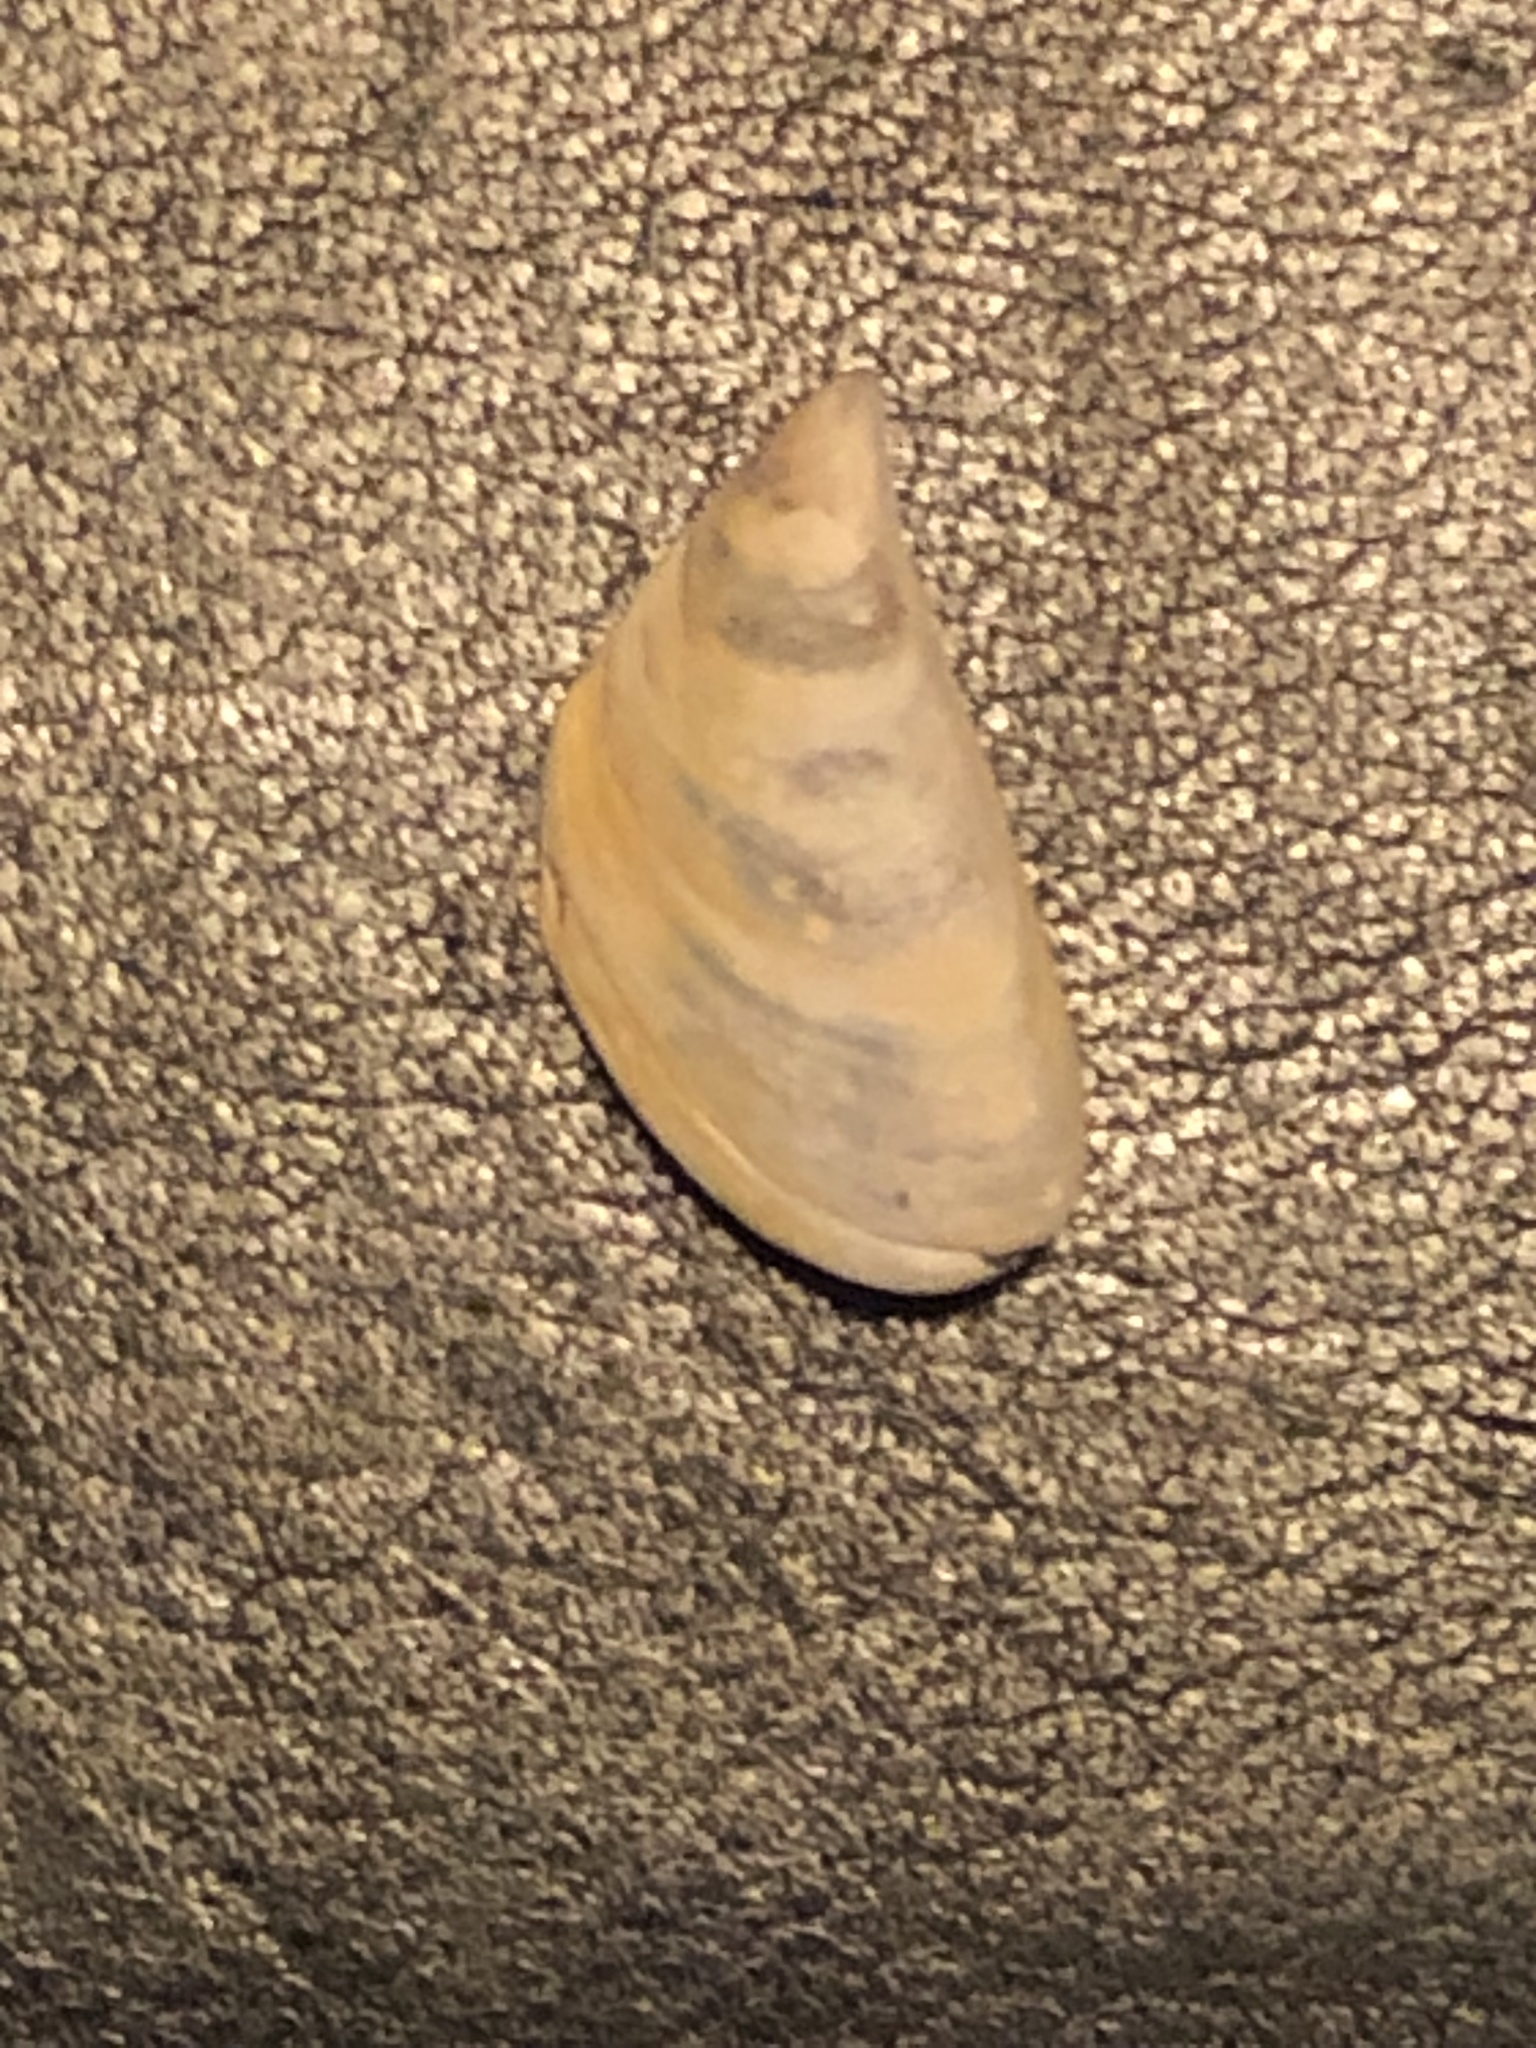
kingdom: Animalia
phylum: Mollusca
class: Bivalvia
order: Myida
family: Dreissenidae
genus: Dreissena
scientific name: Dreissena polymorpha
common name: Zebra mussel
